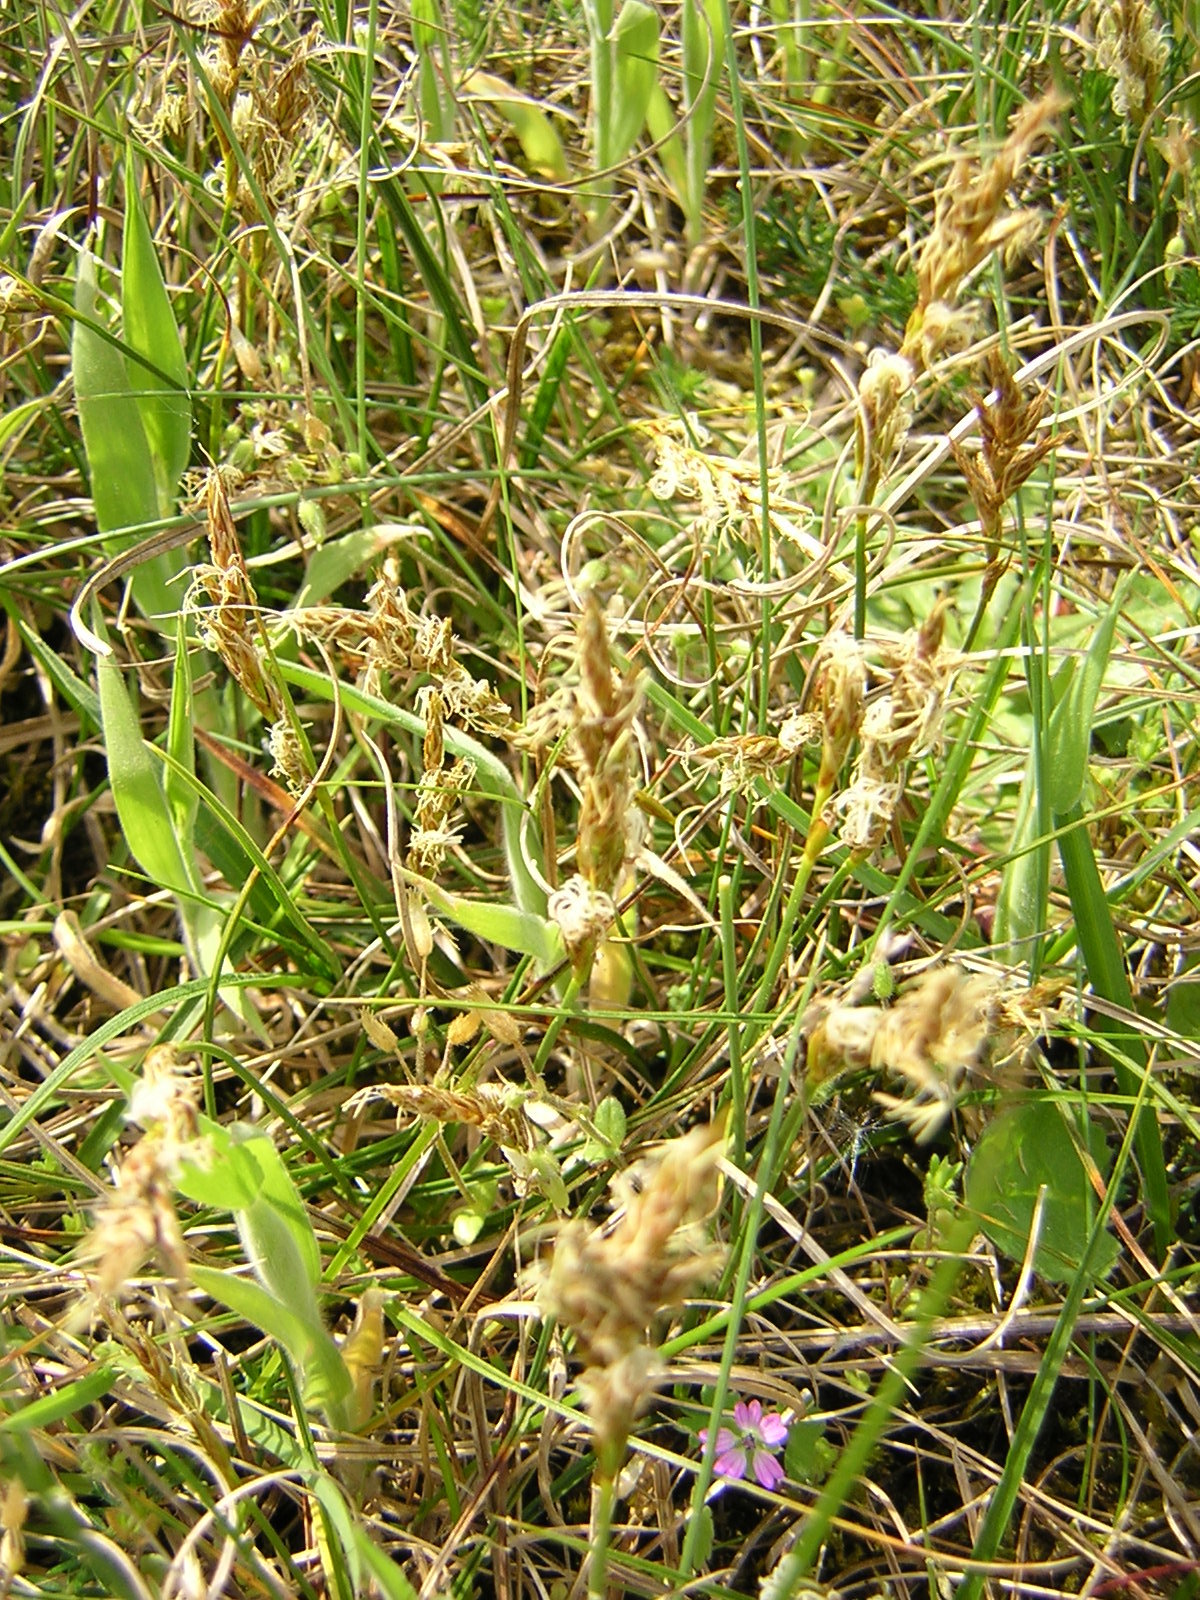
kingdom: Plantae
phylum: Tracheophyta
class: Liliopsida
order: Poales
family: Cyperaceae
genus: Carex
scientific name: Carex arenaria
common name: Sand sedge
